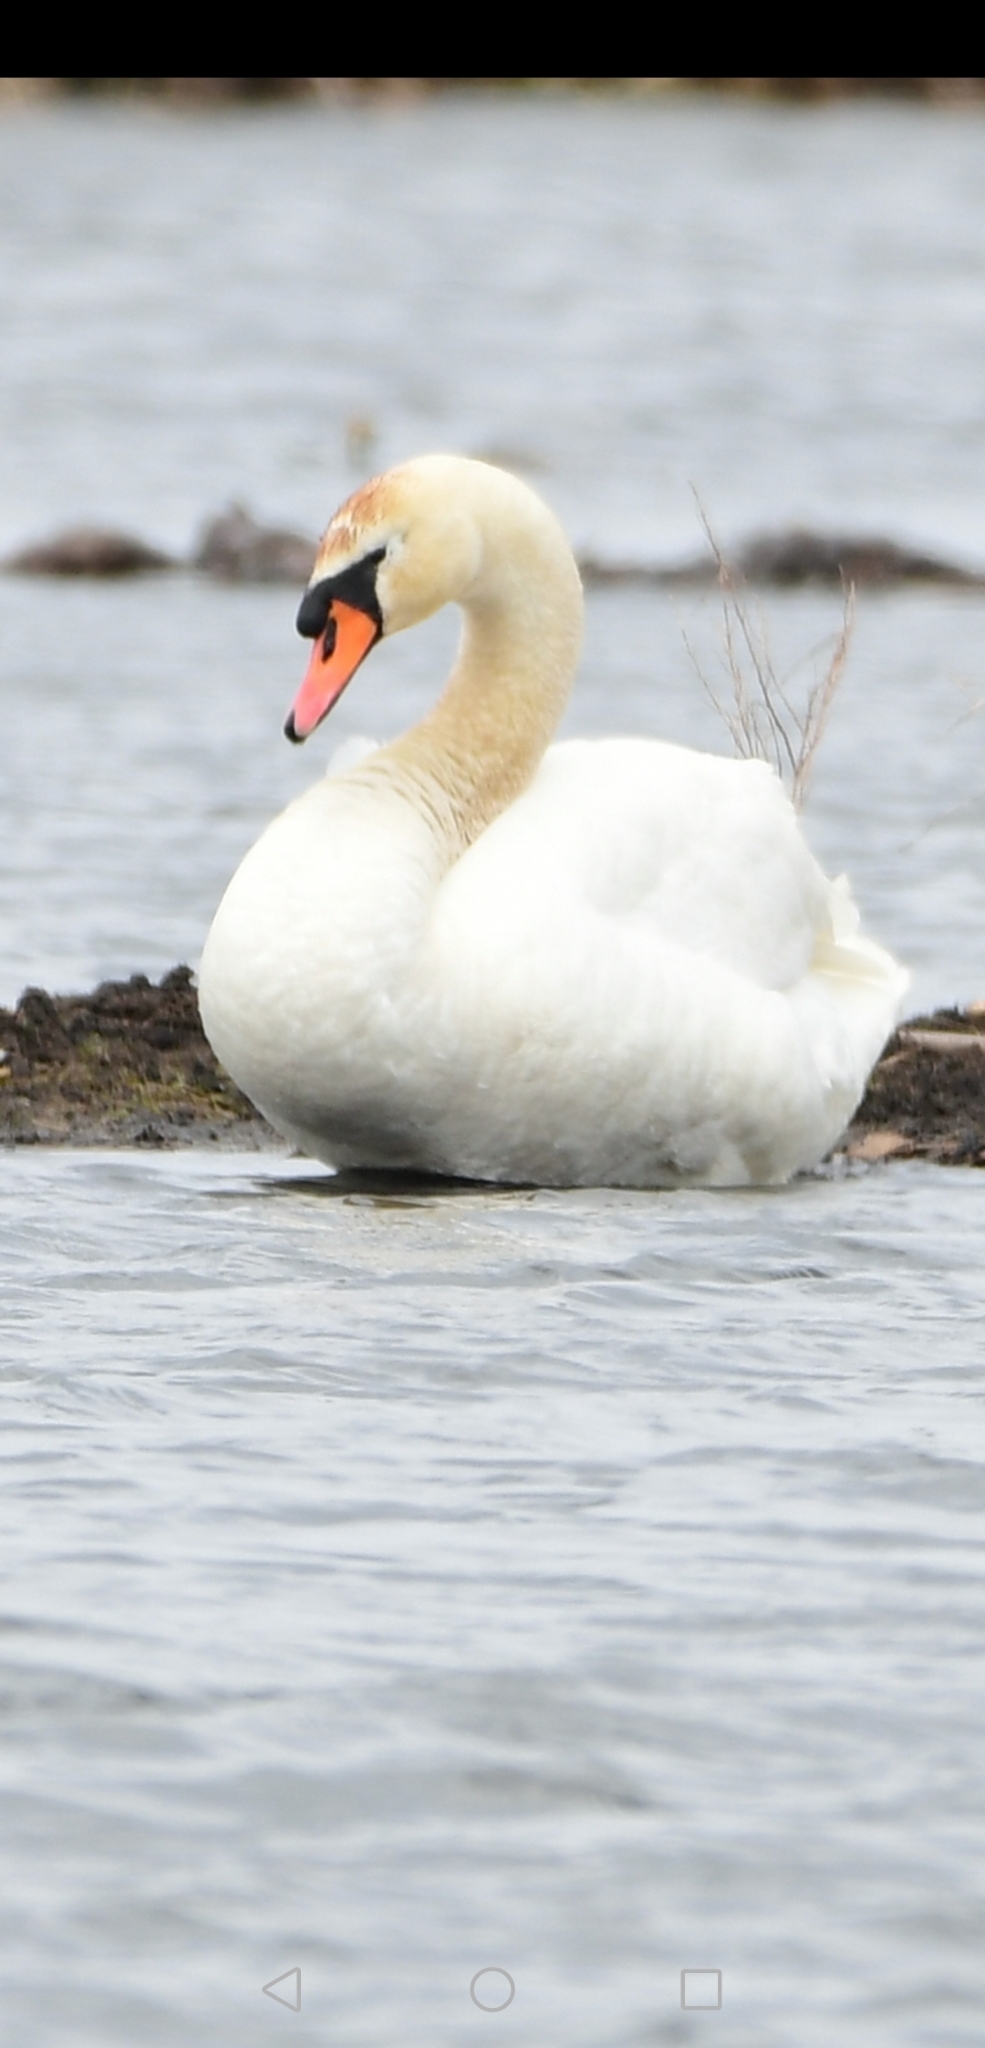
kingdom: Animalia
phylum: Chordata
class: Aves
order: Anseriformes
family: Anatidae
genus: Cygnus
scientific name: Cygnus olor
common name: Mute swan
